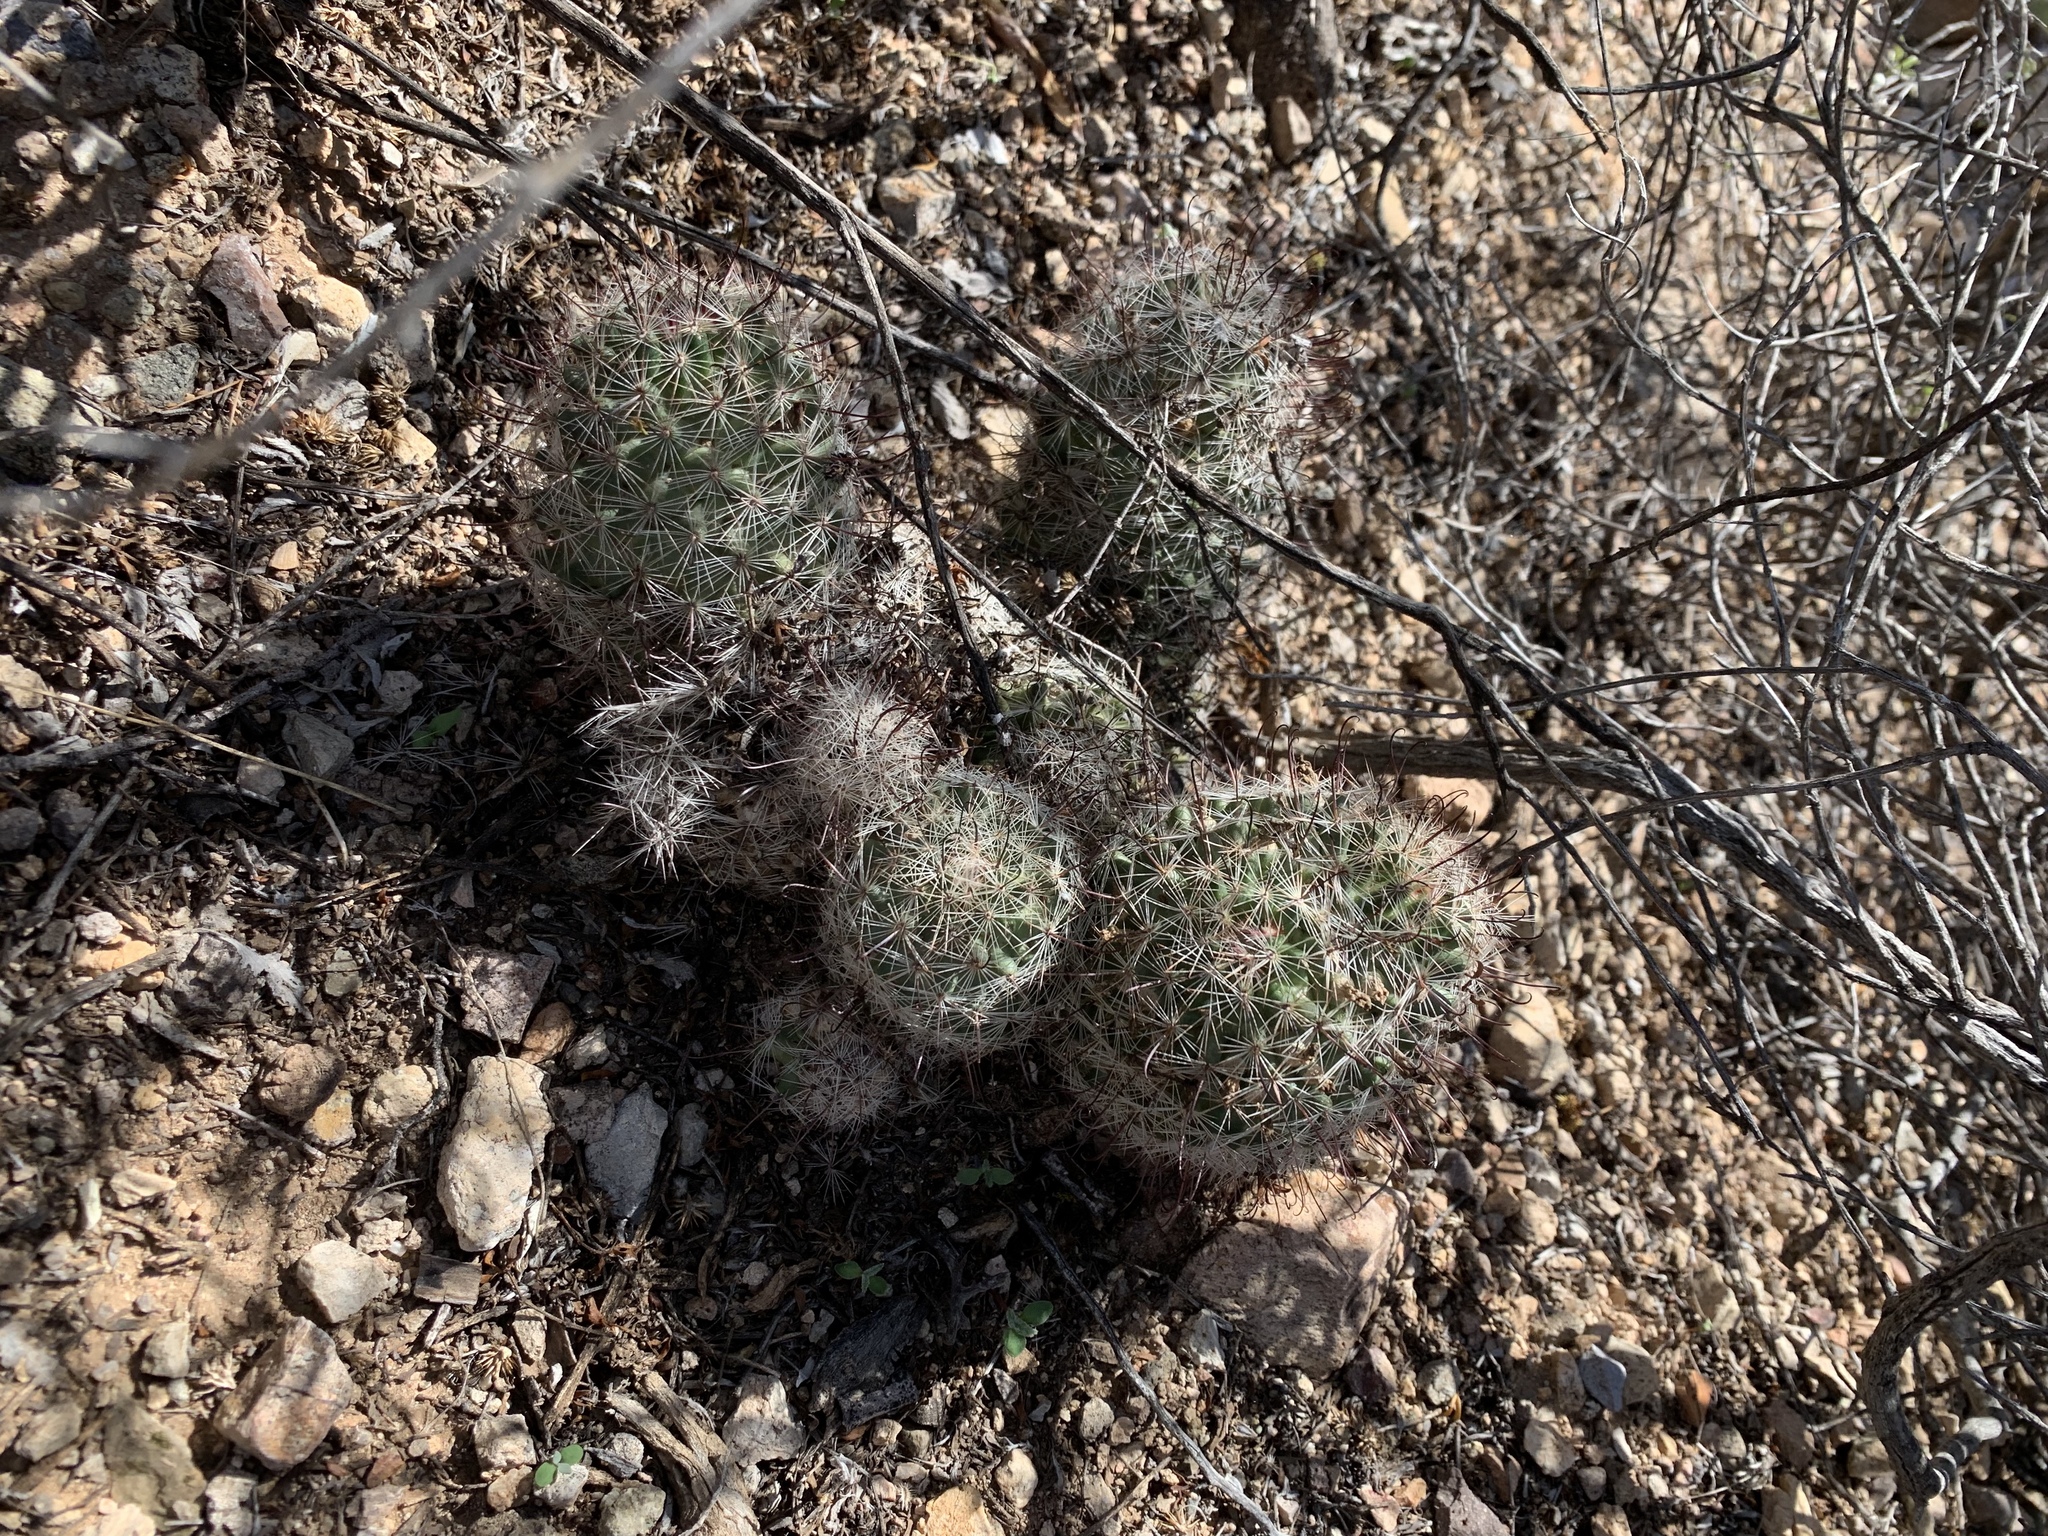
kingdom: Plantae
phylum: Tracheophyta
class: Magnoliopsida
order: Caryophyllales
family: Cactaceae
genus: Cochemiea
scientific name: Cochemiea grahamii
